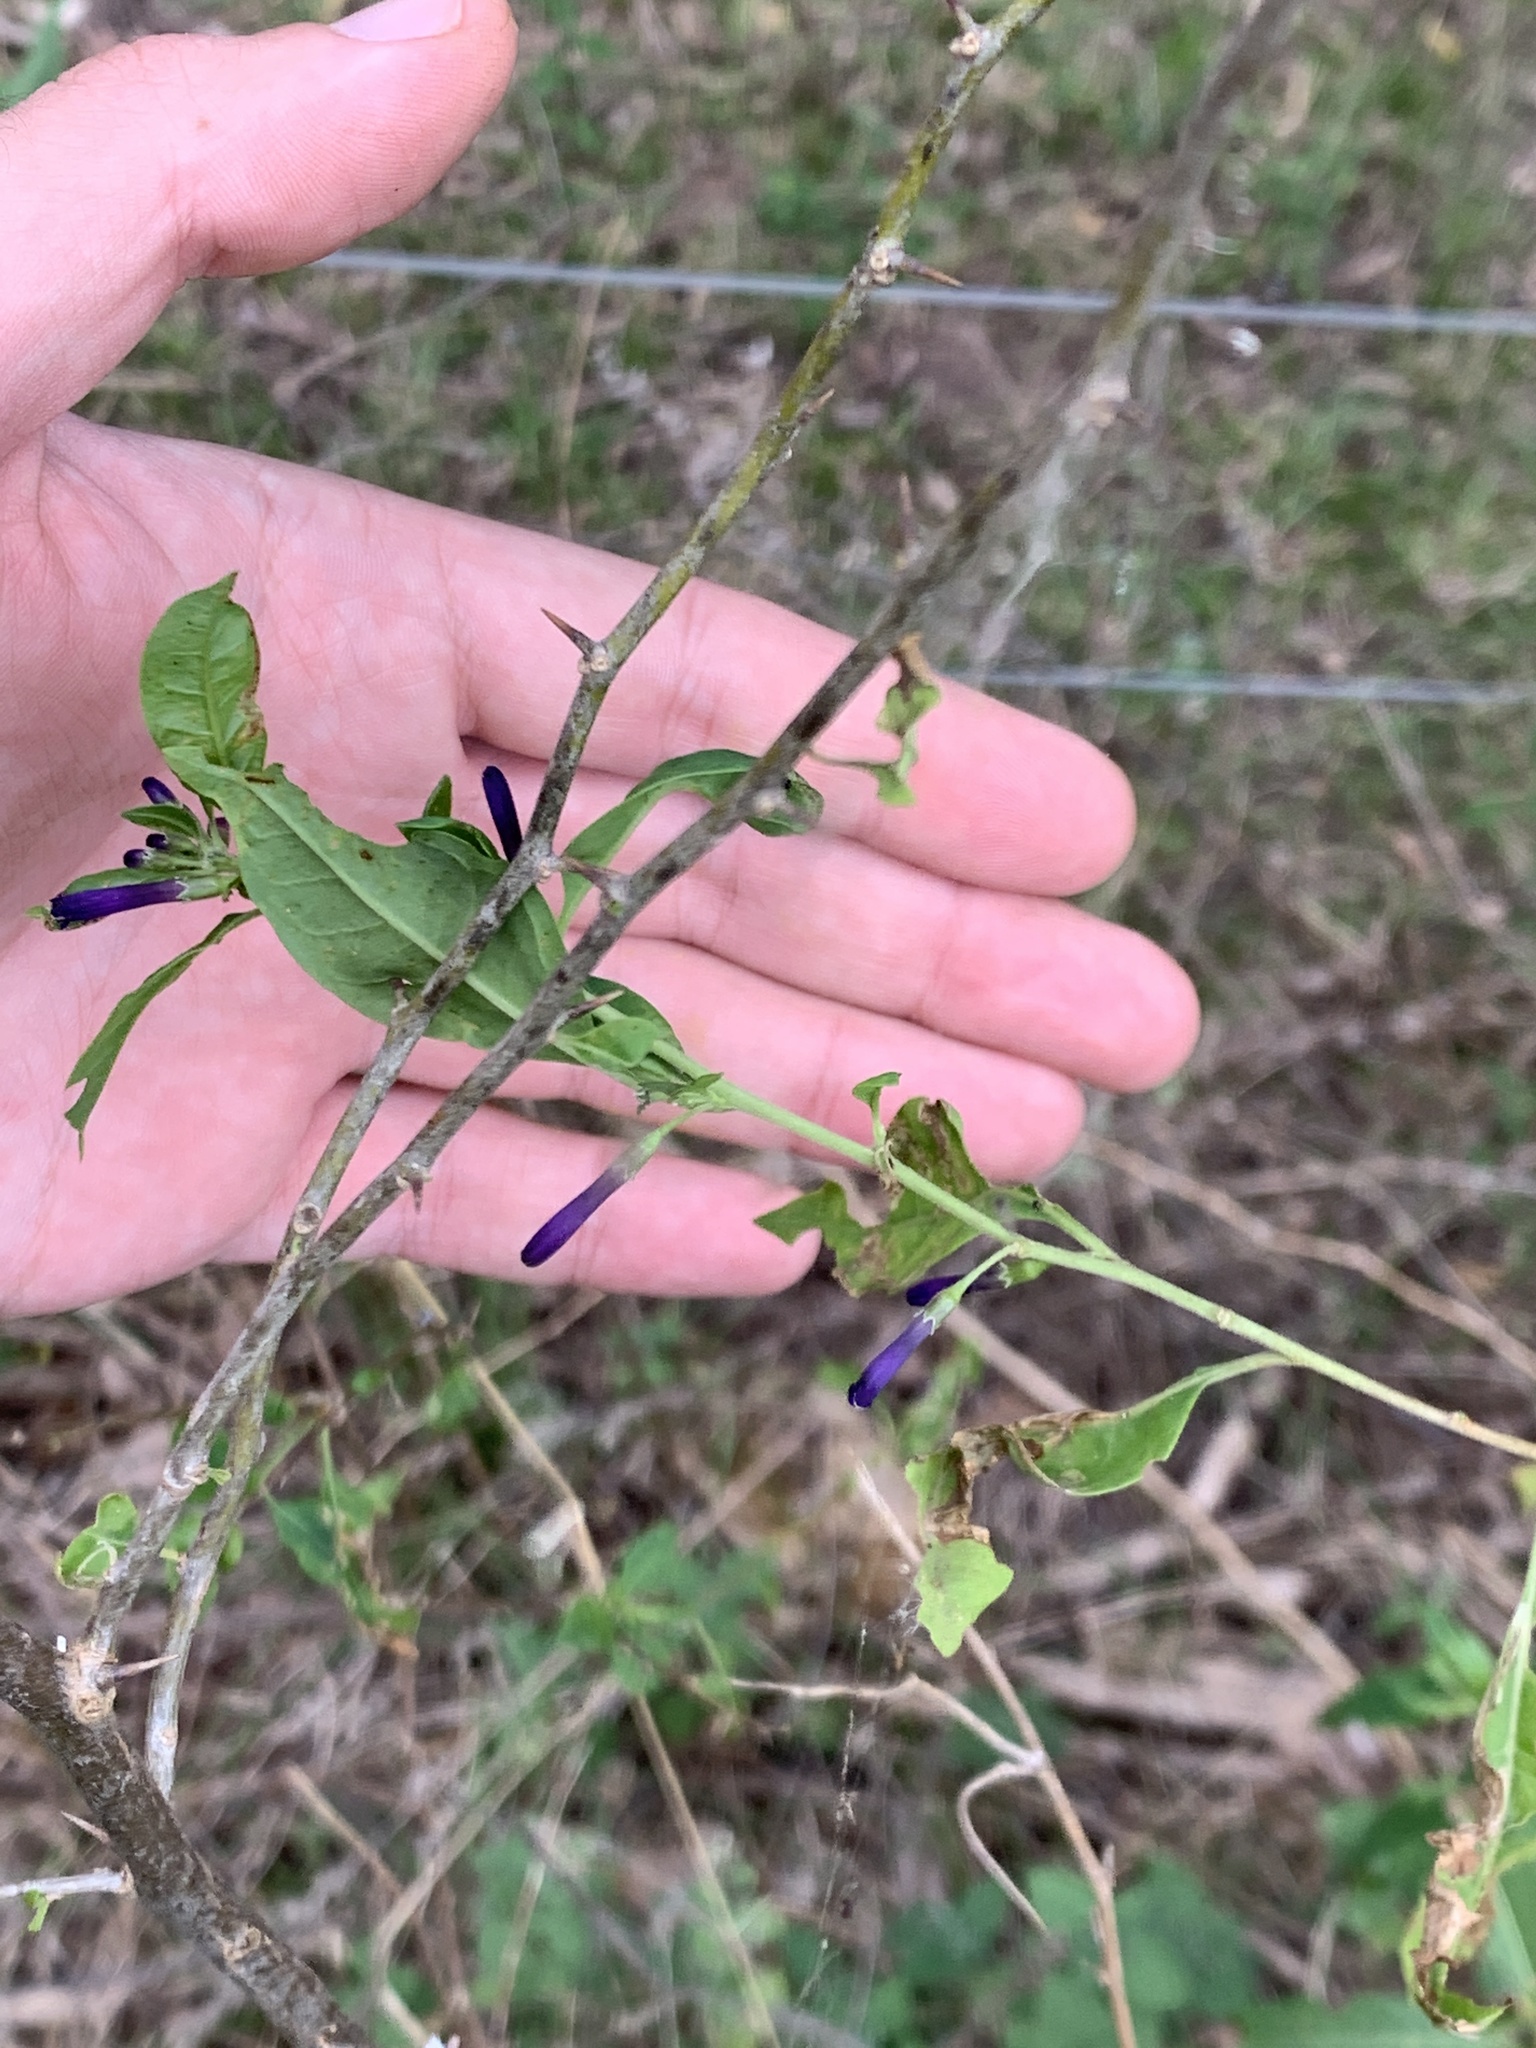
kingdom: Plantae
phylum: Tracheophyta
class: Magnoliopsida
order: Solanales
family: Solanaceae
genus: Lycium
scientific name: Lycium cestroides
